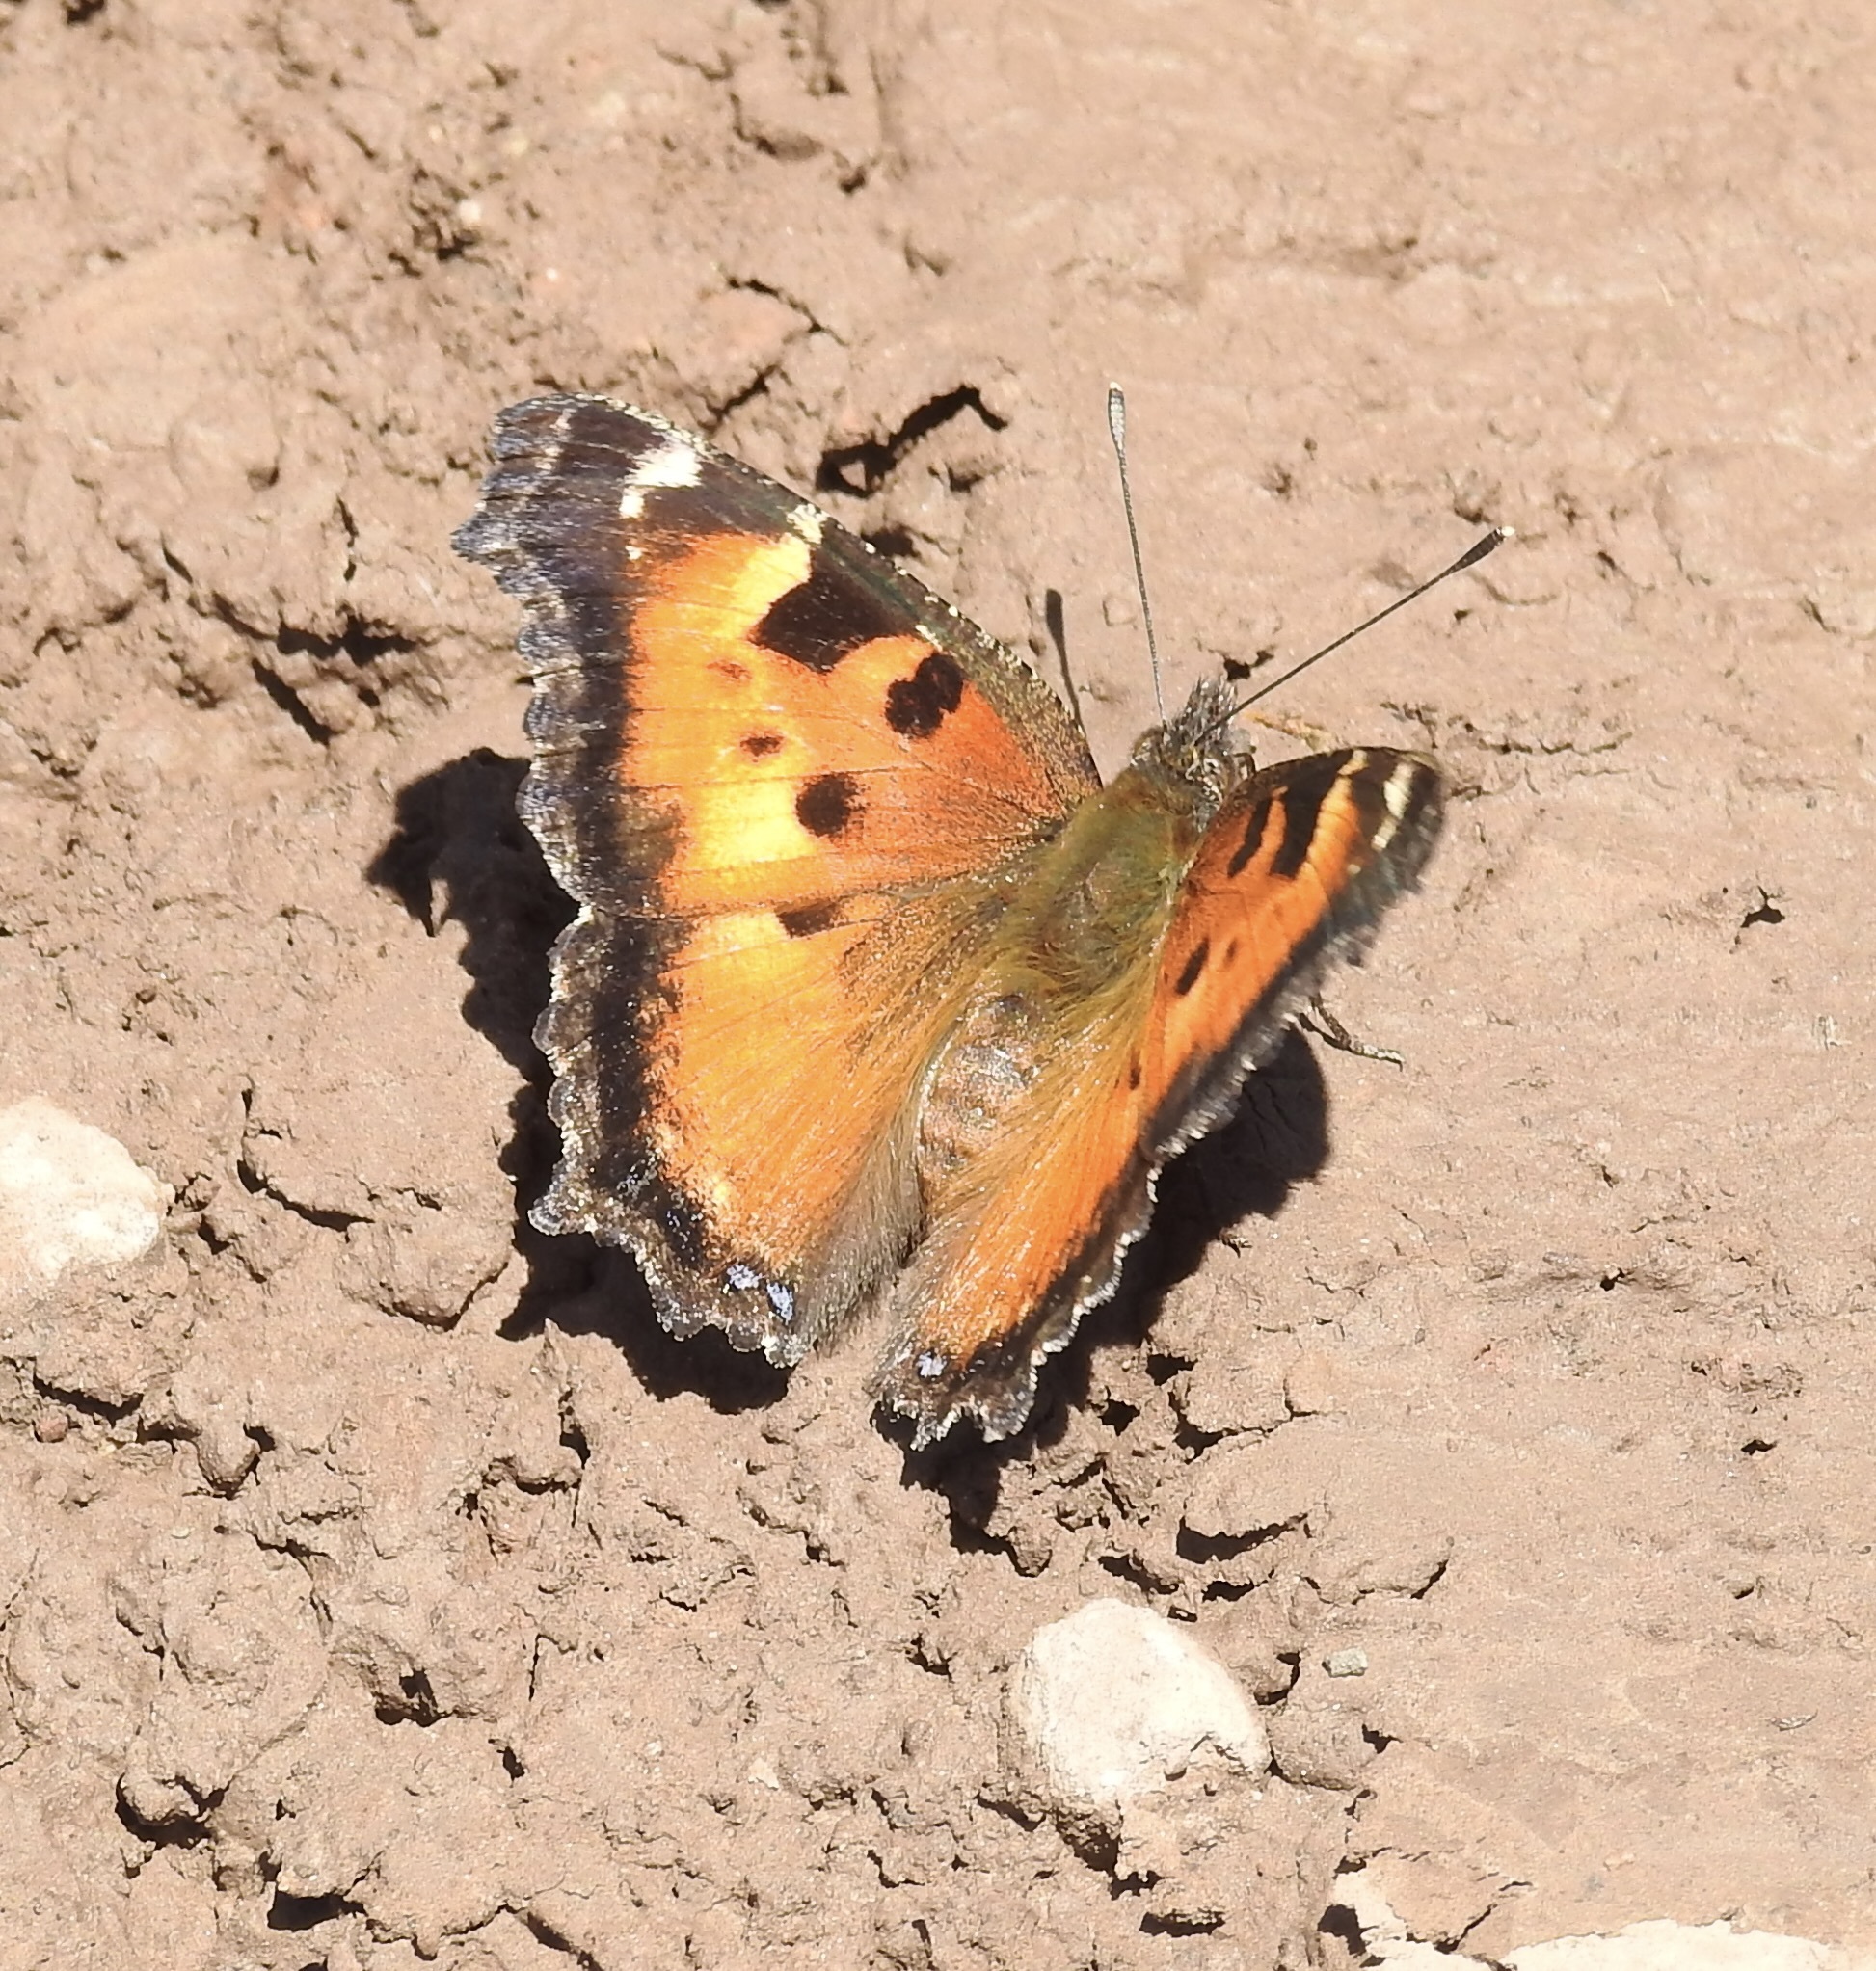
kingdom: Animalia
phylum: Arthropoda
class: Insecta
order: Lepidoptera
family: Nymphalidae
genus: Nymphalis
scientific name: Nymphalis californica
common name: California tortoiseshell
